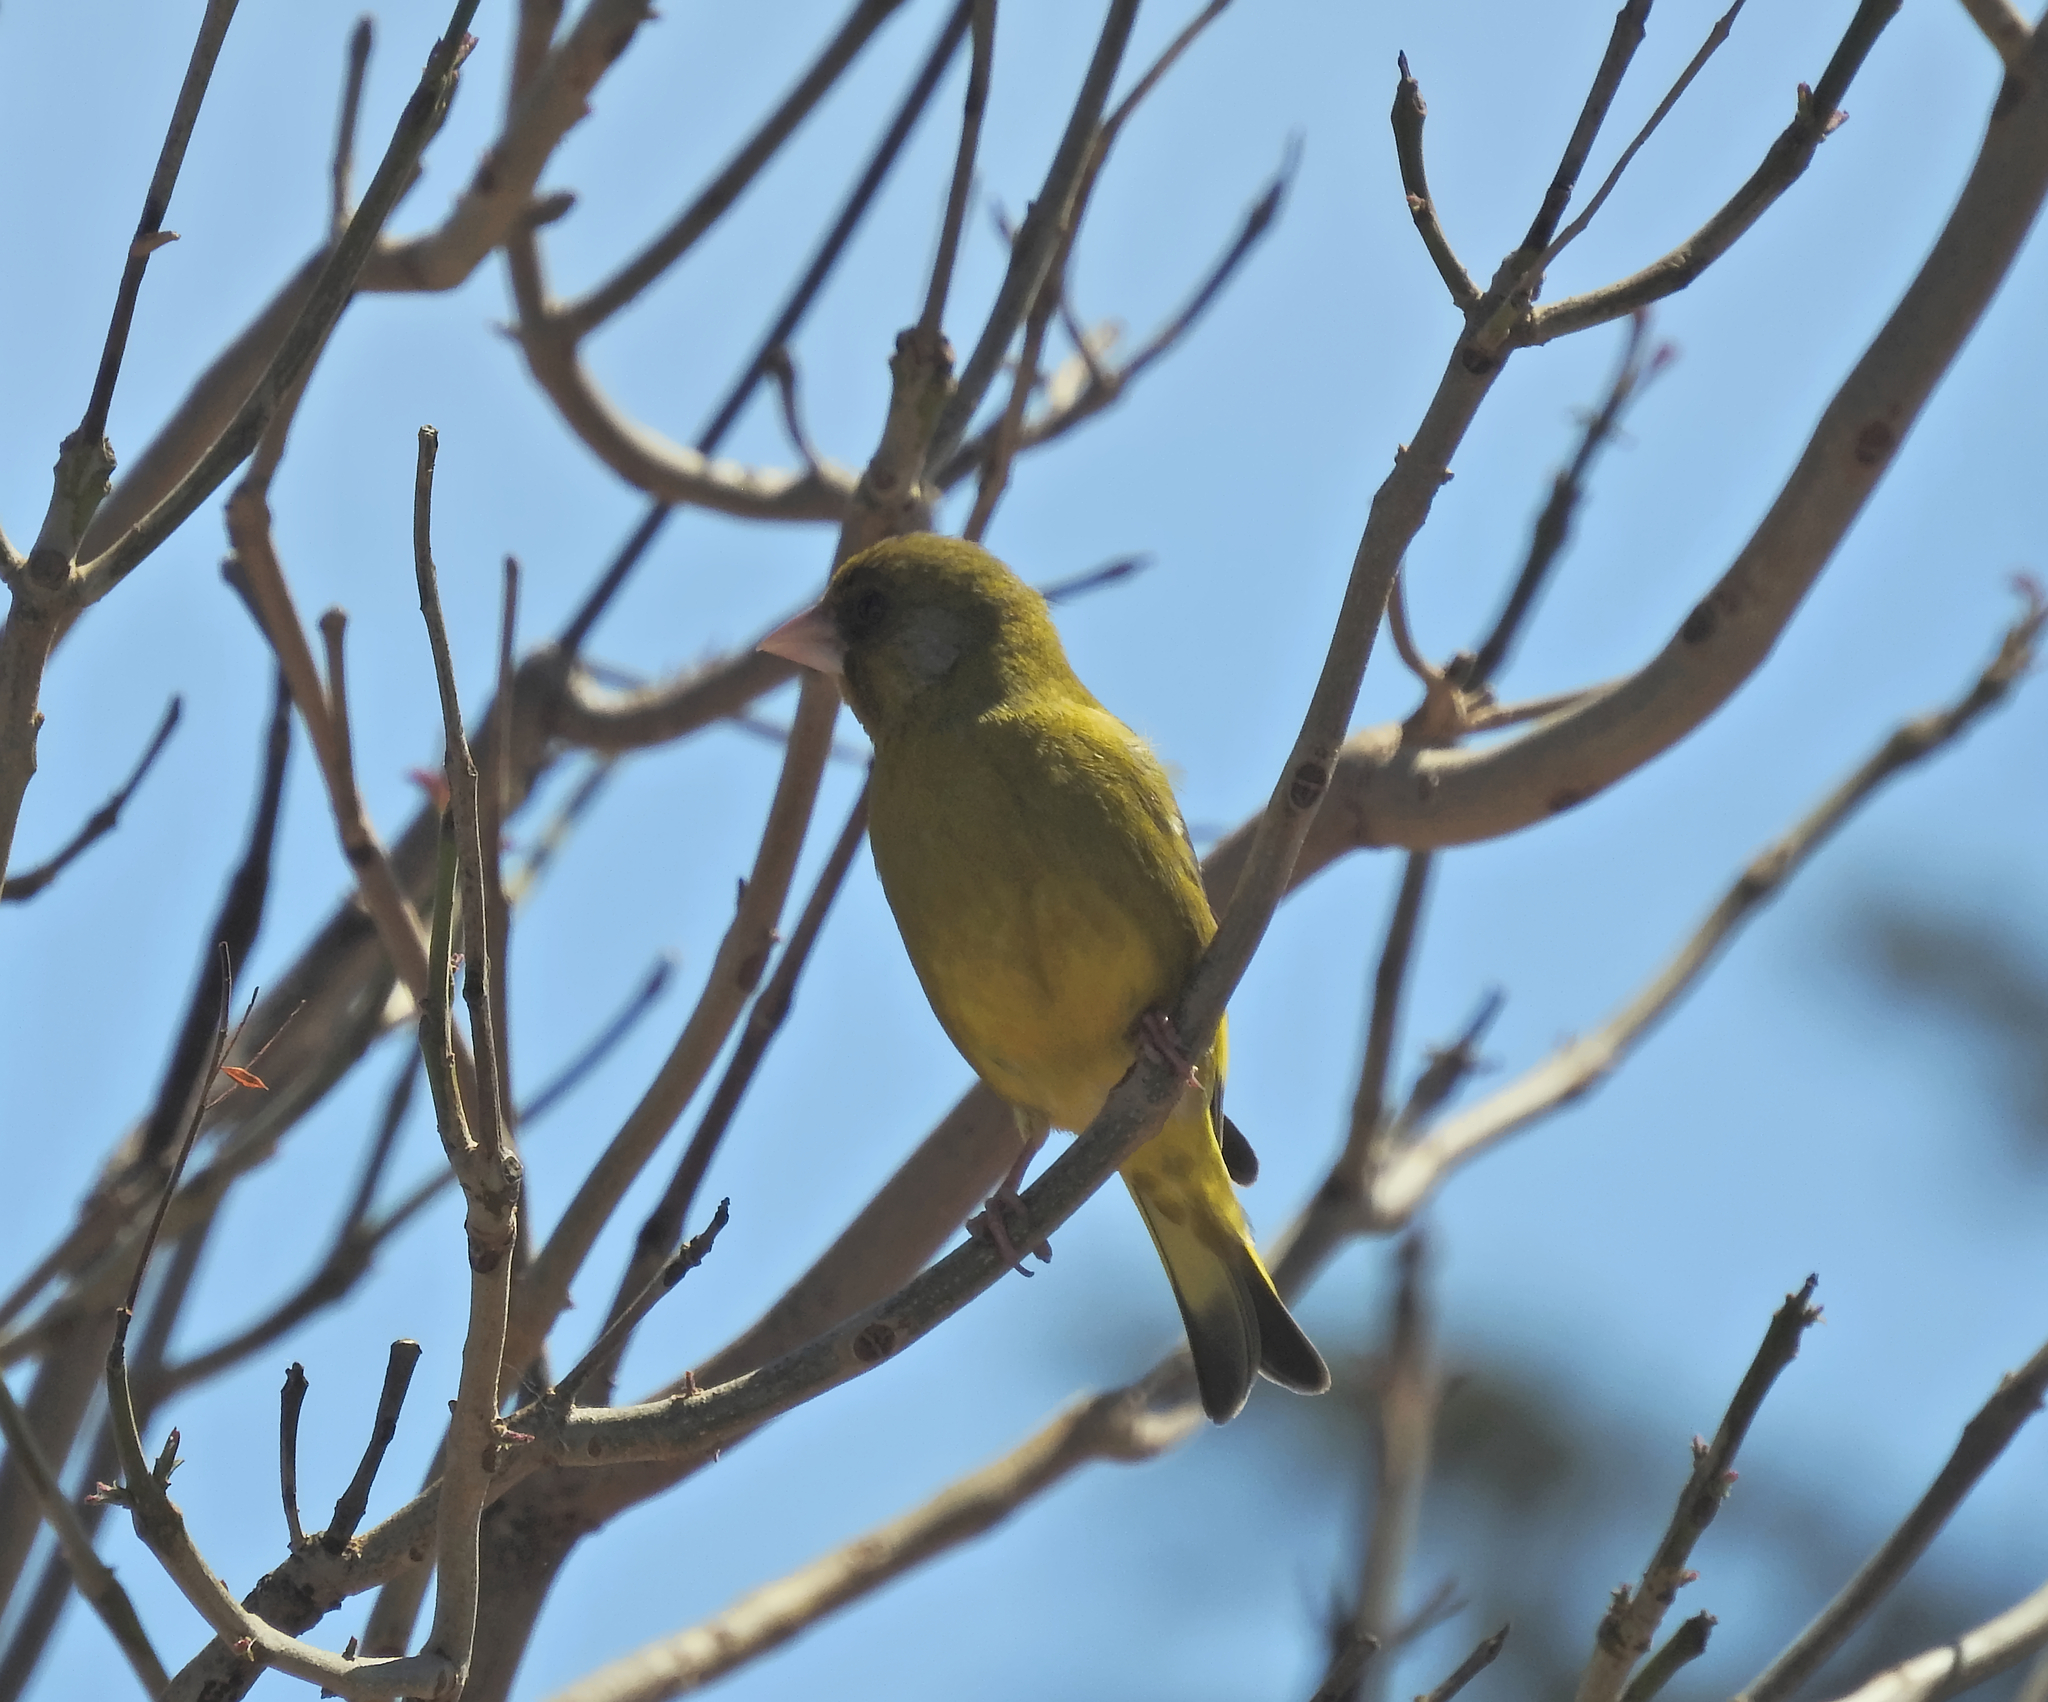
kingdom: Plantae
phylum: Tracheophyta
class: Liliopsida
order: Poales
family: Poaceae
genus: Chloris
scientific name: Chloris chloris
